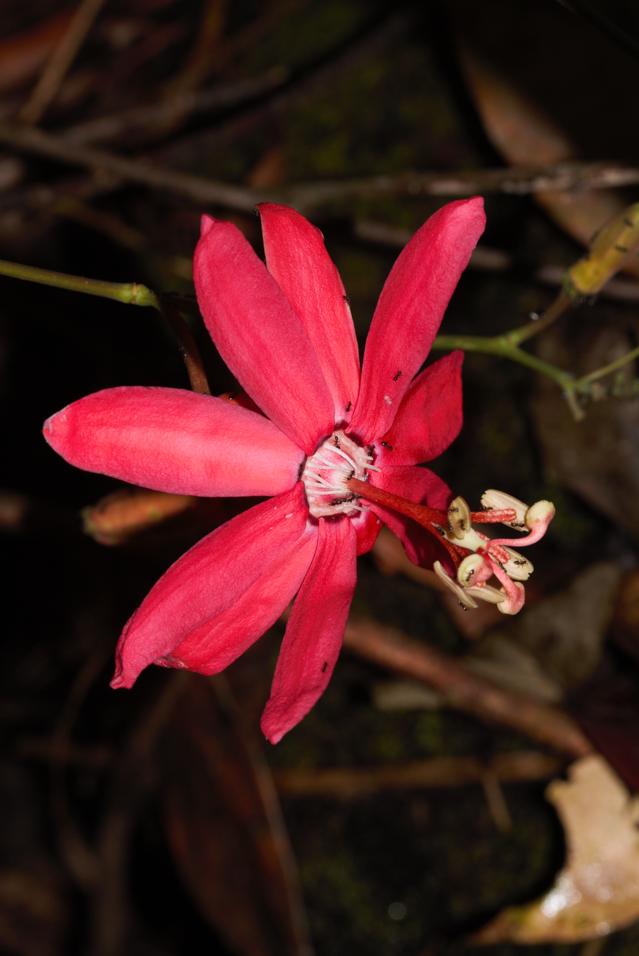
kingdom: Plantae
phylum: Tracheophyta
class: Magnoliopsida
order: Malpighiales
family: Passifloraceae
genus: Passiflora
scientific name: Passiflora glandulosa
